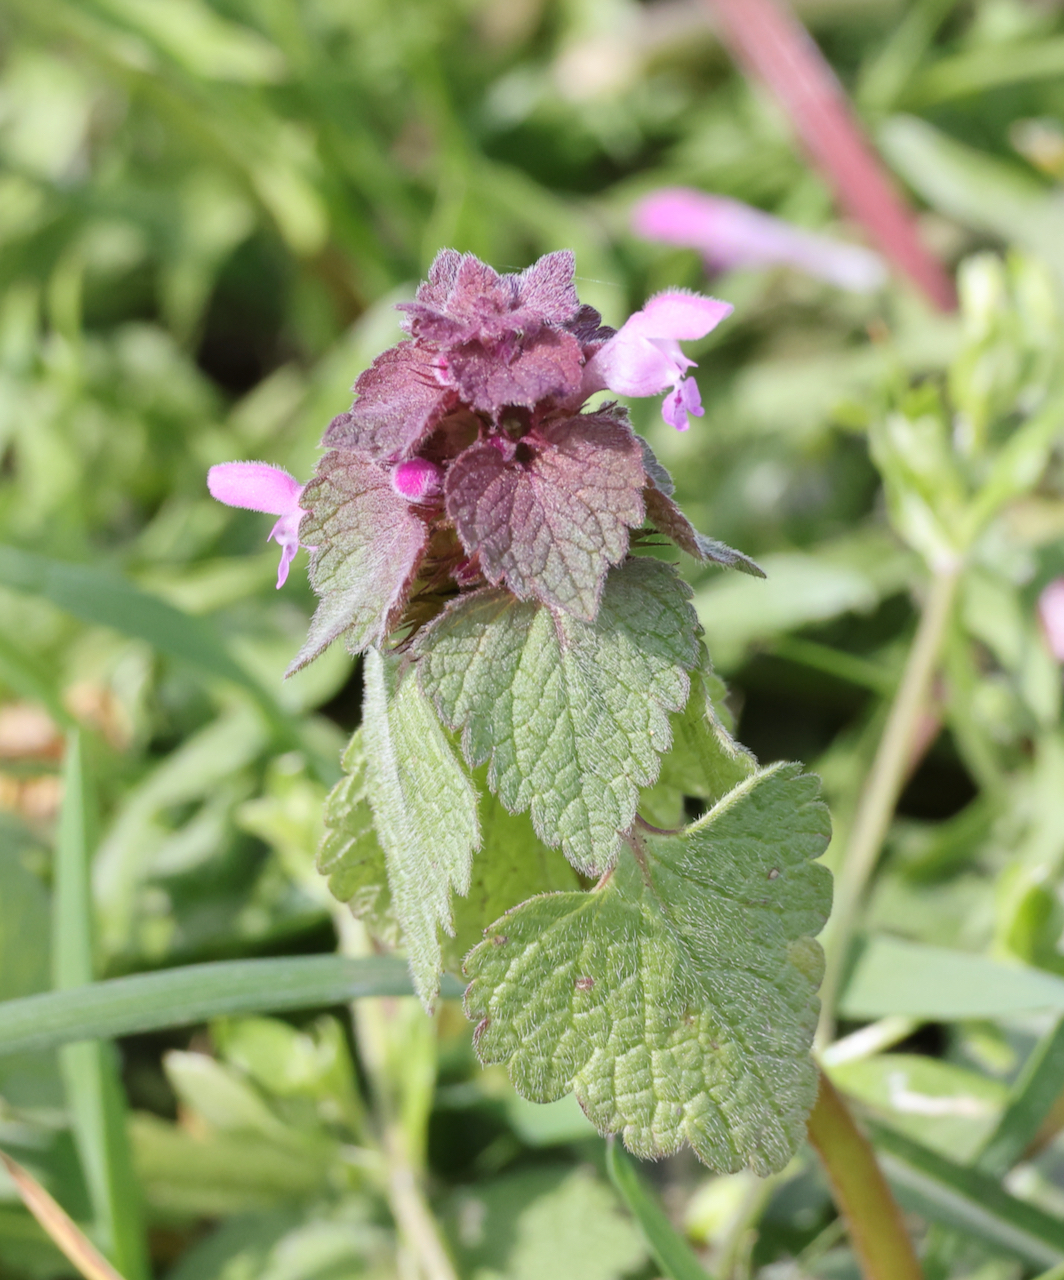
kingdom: Plantae
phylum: Tracheophyta
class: Magnoliopsida
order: Lamiales
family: Lamiaceae
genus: Lamium
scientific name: Lamium purpureum
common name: Red dead-nettle
